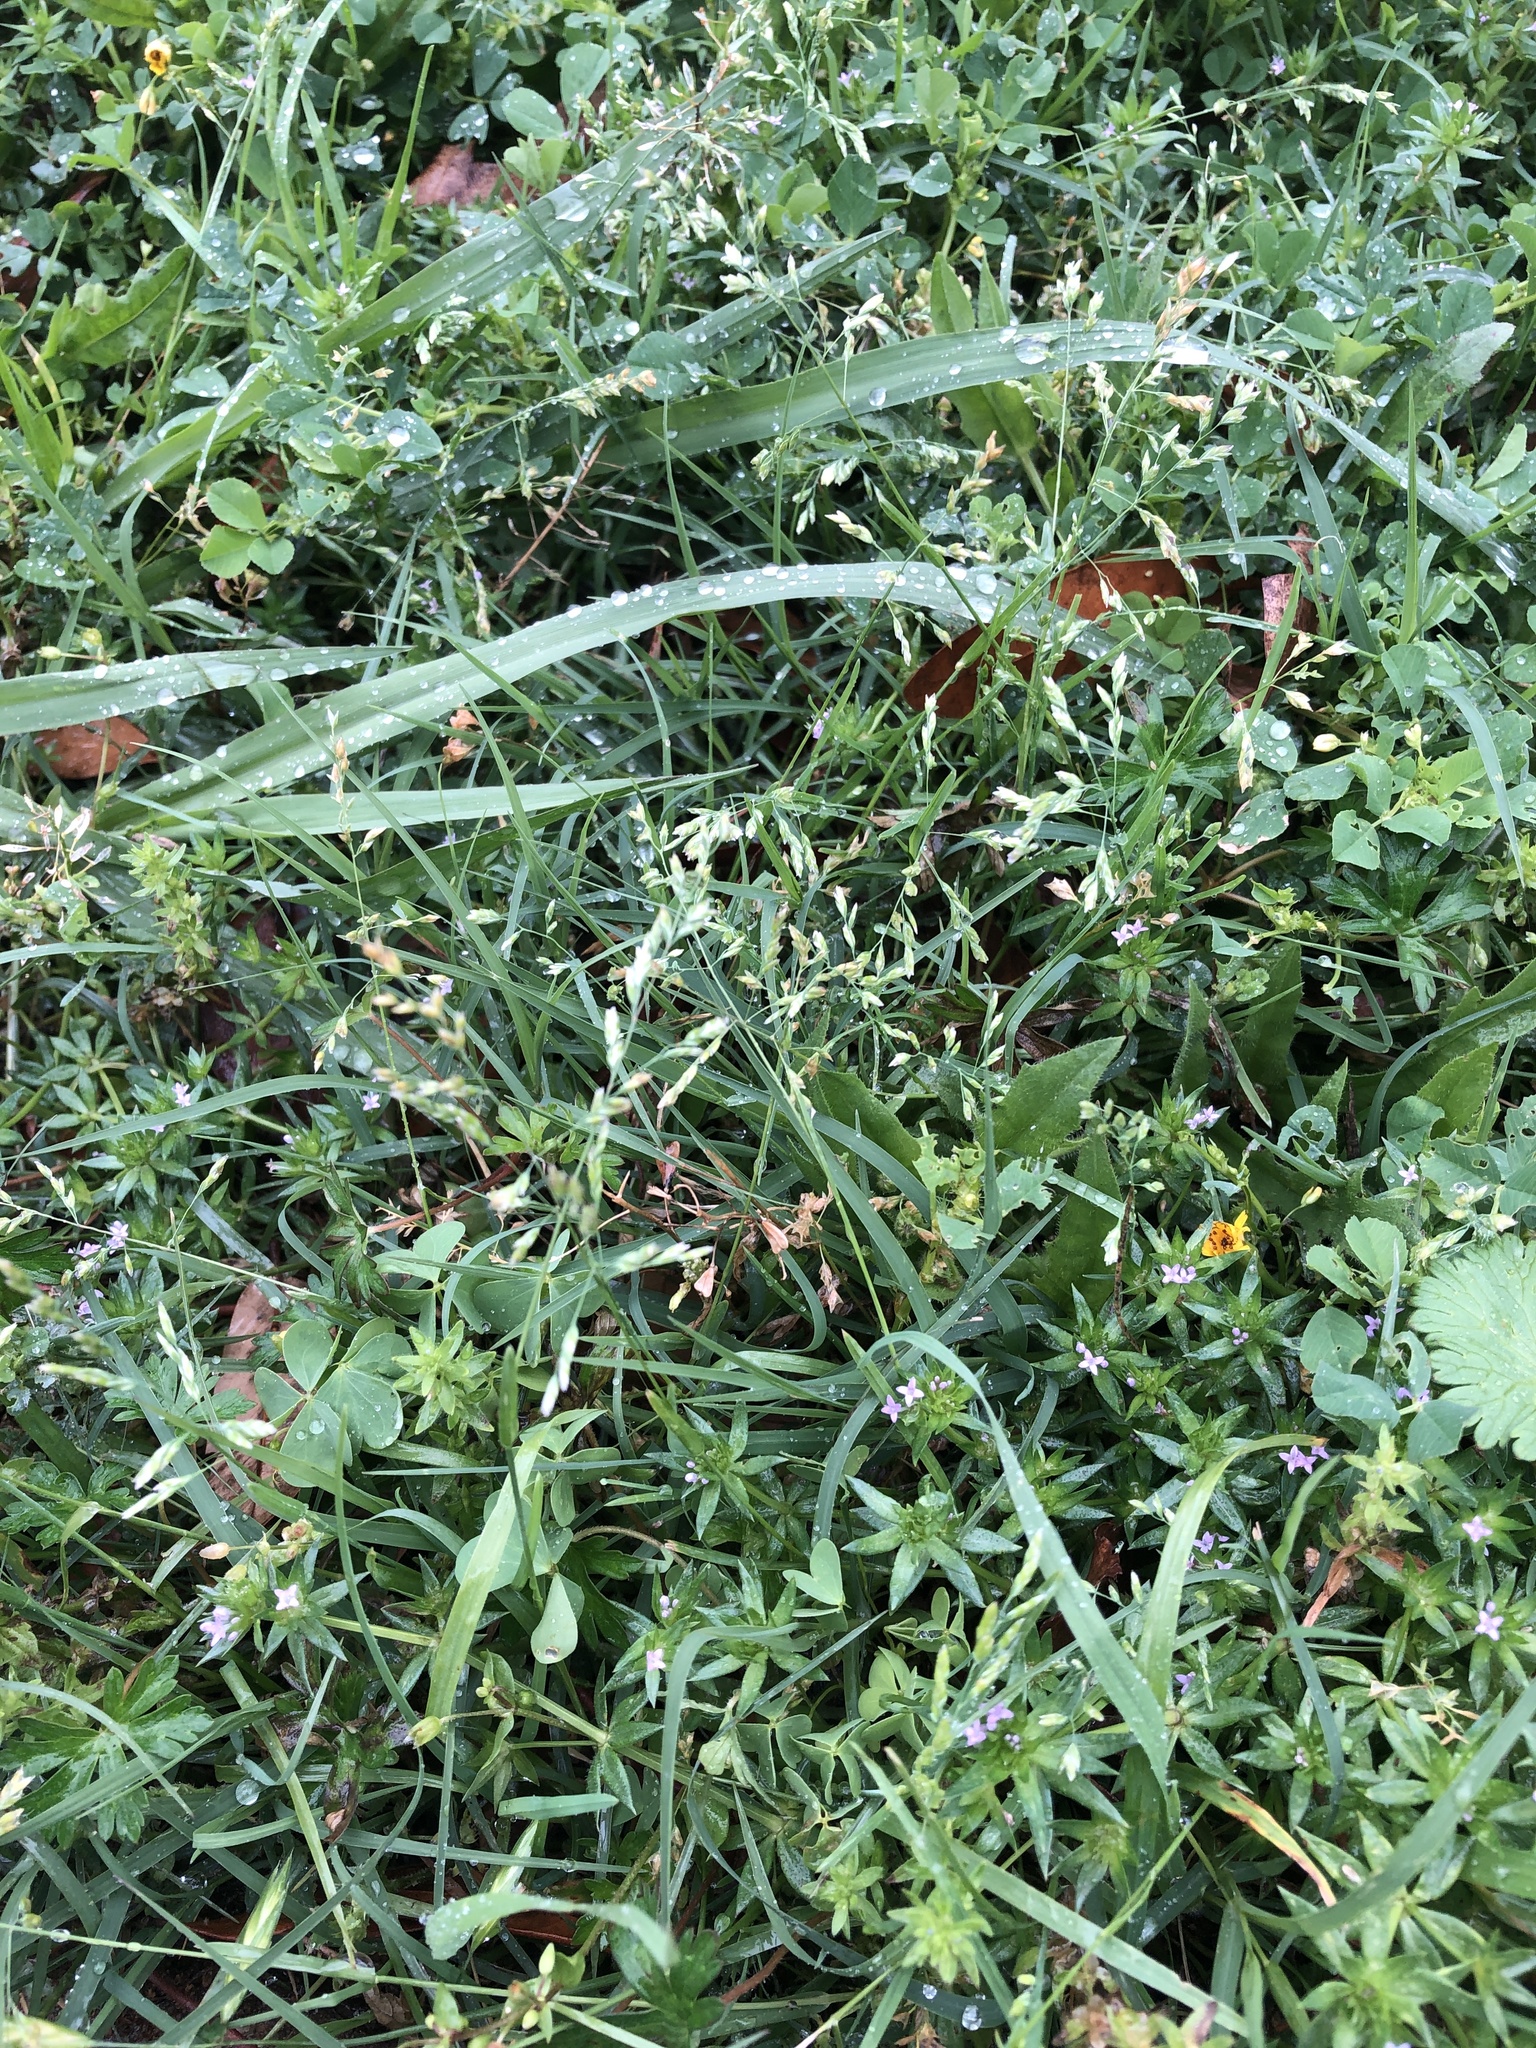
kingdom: Plantae
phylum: Tracheophyta
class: Liliopsida
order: Poales
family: Poaceae
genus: Poa
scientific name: Poa annua
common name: Annual bluegrass
